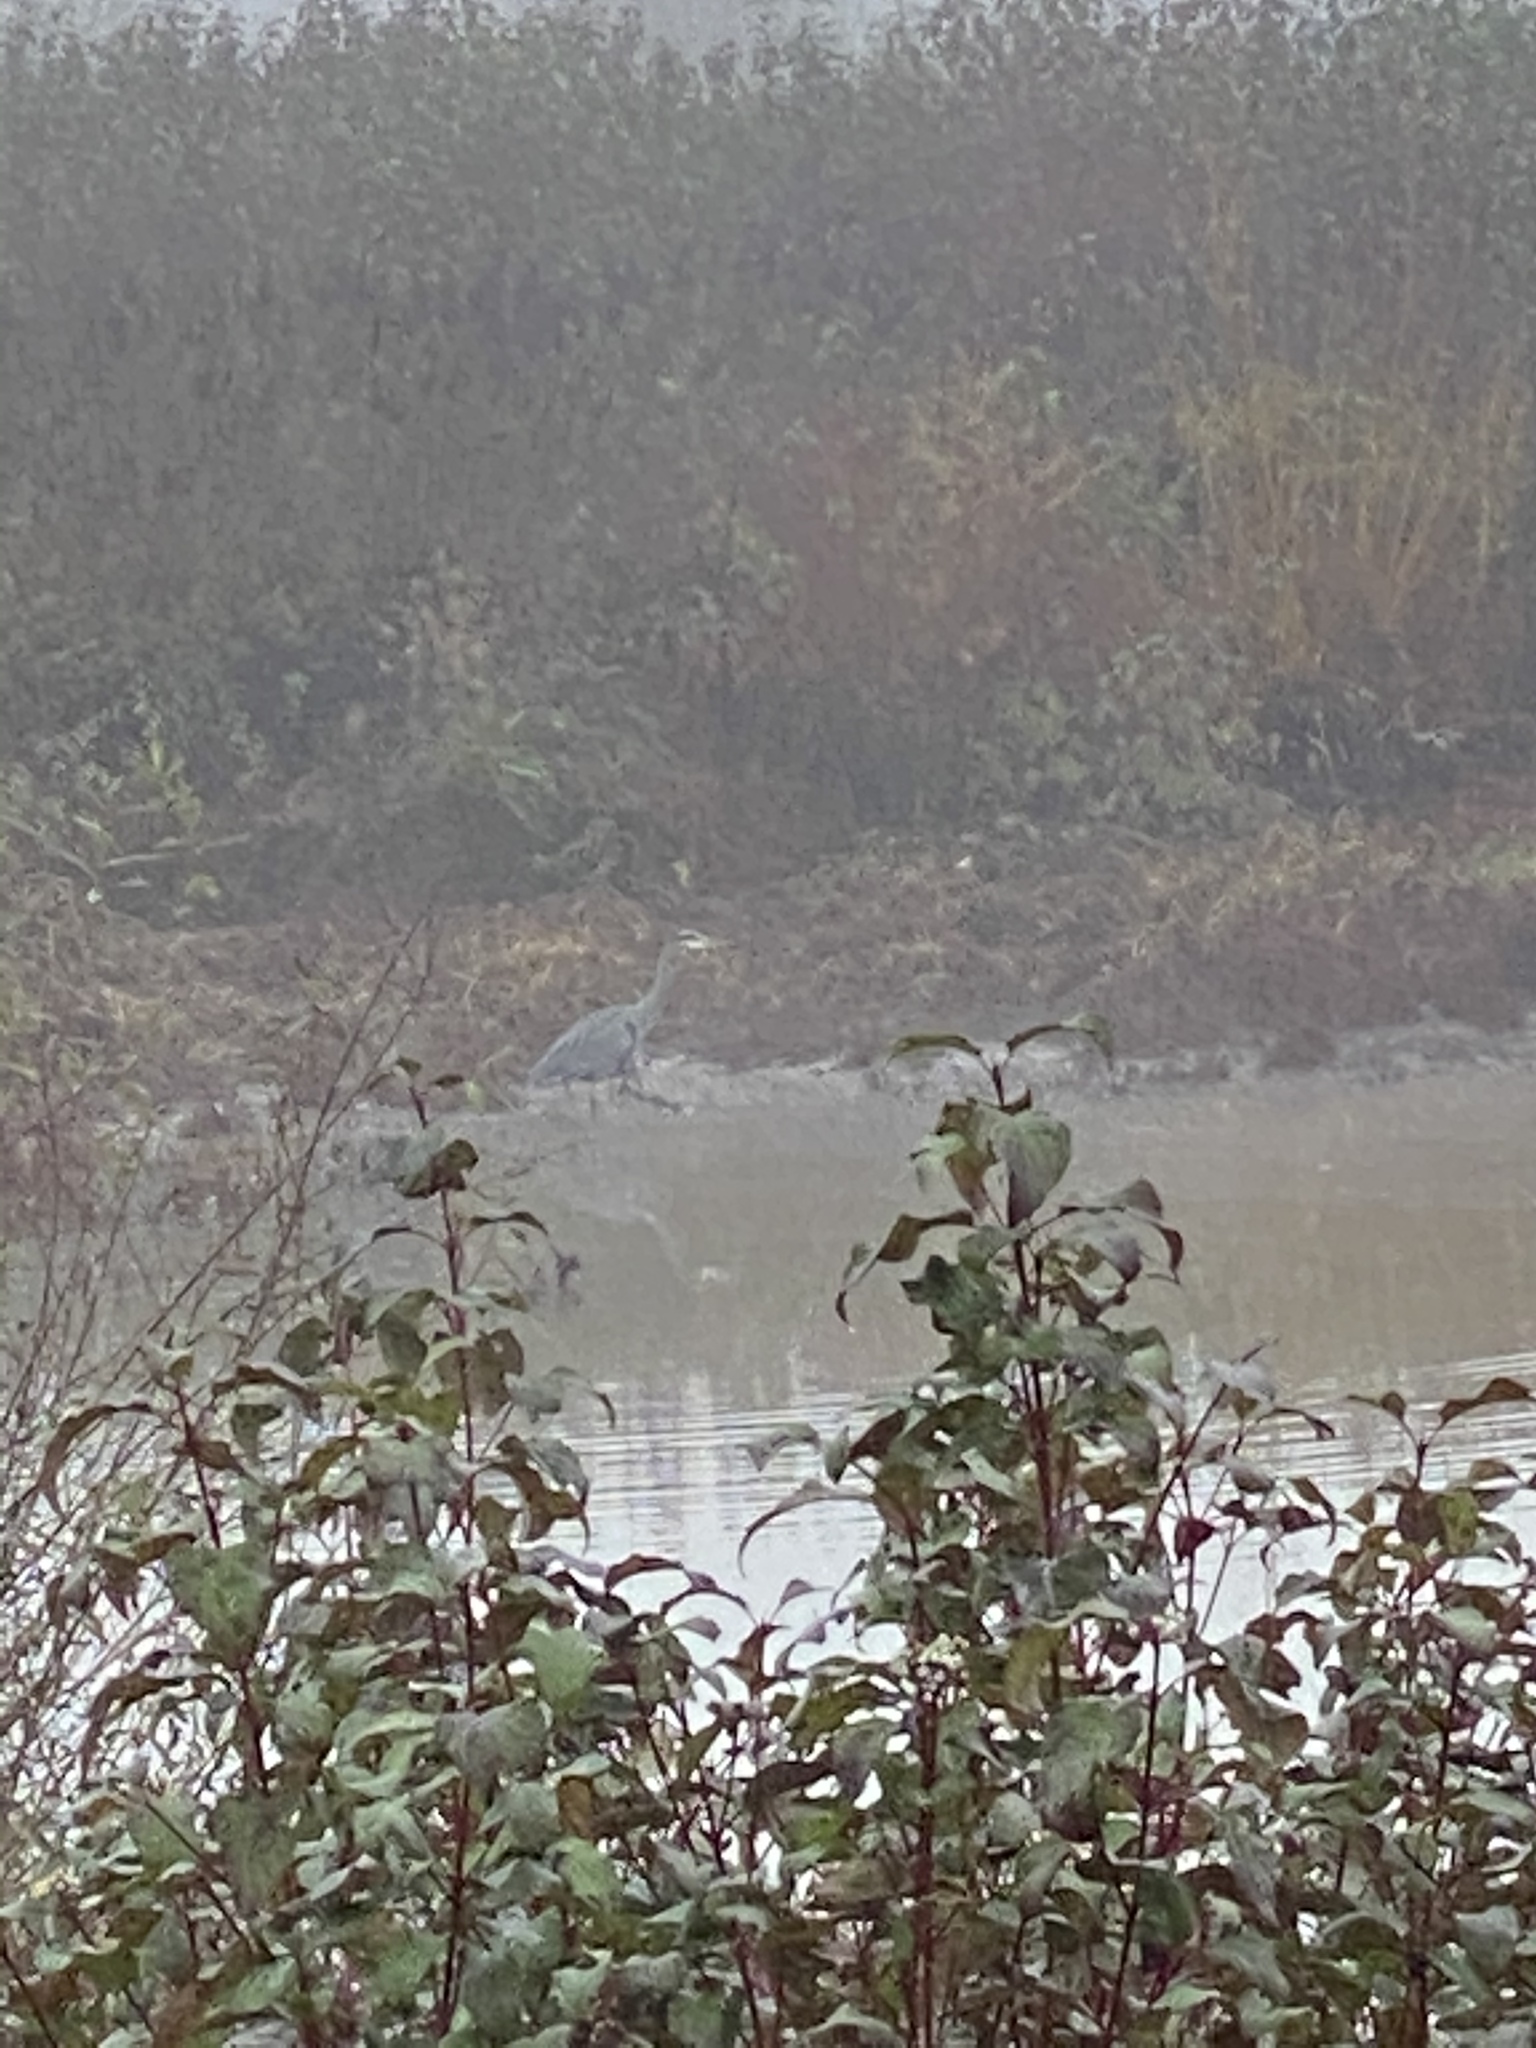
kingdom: Animalia
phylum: Chordata
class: Aves
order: Pelecaniformes
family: Ardeidae
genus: Ardea
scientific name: Ardea herodias
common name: Great blue heron
